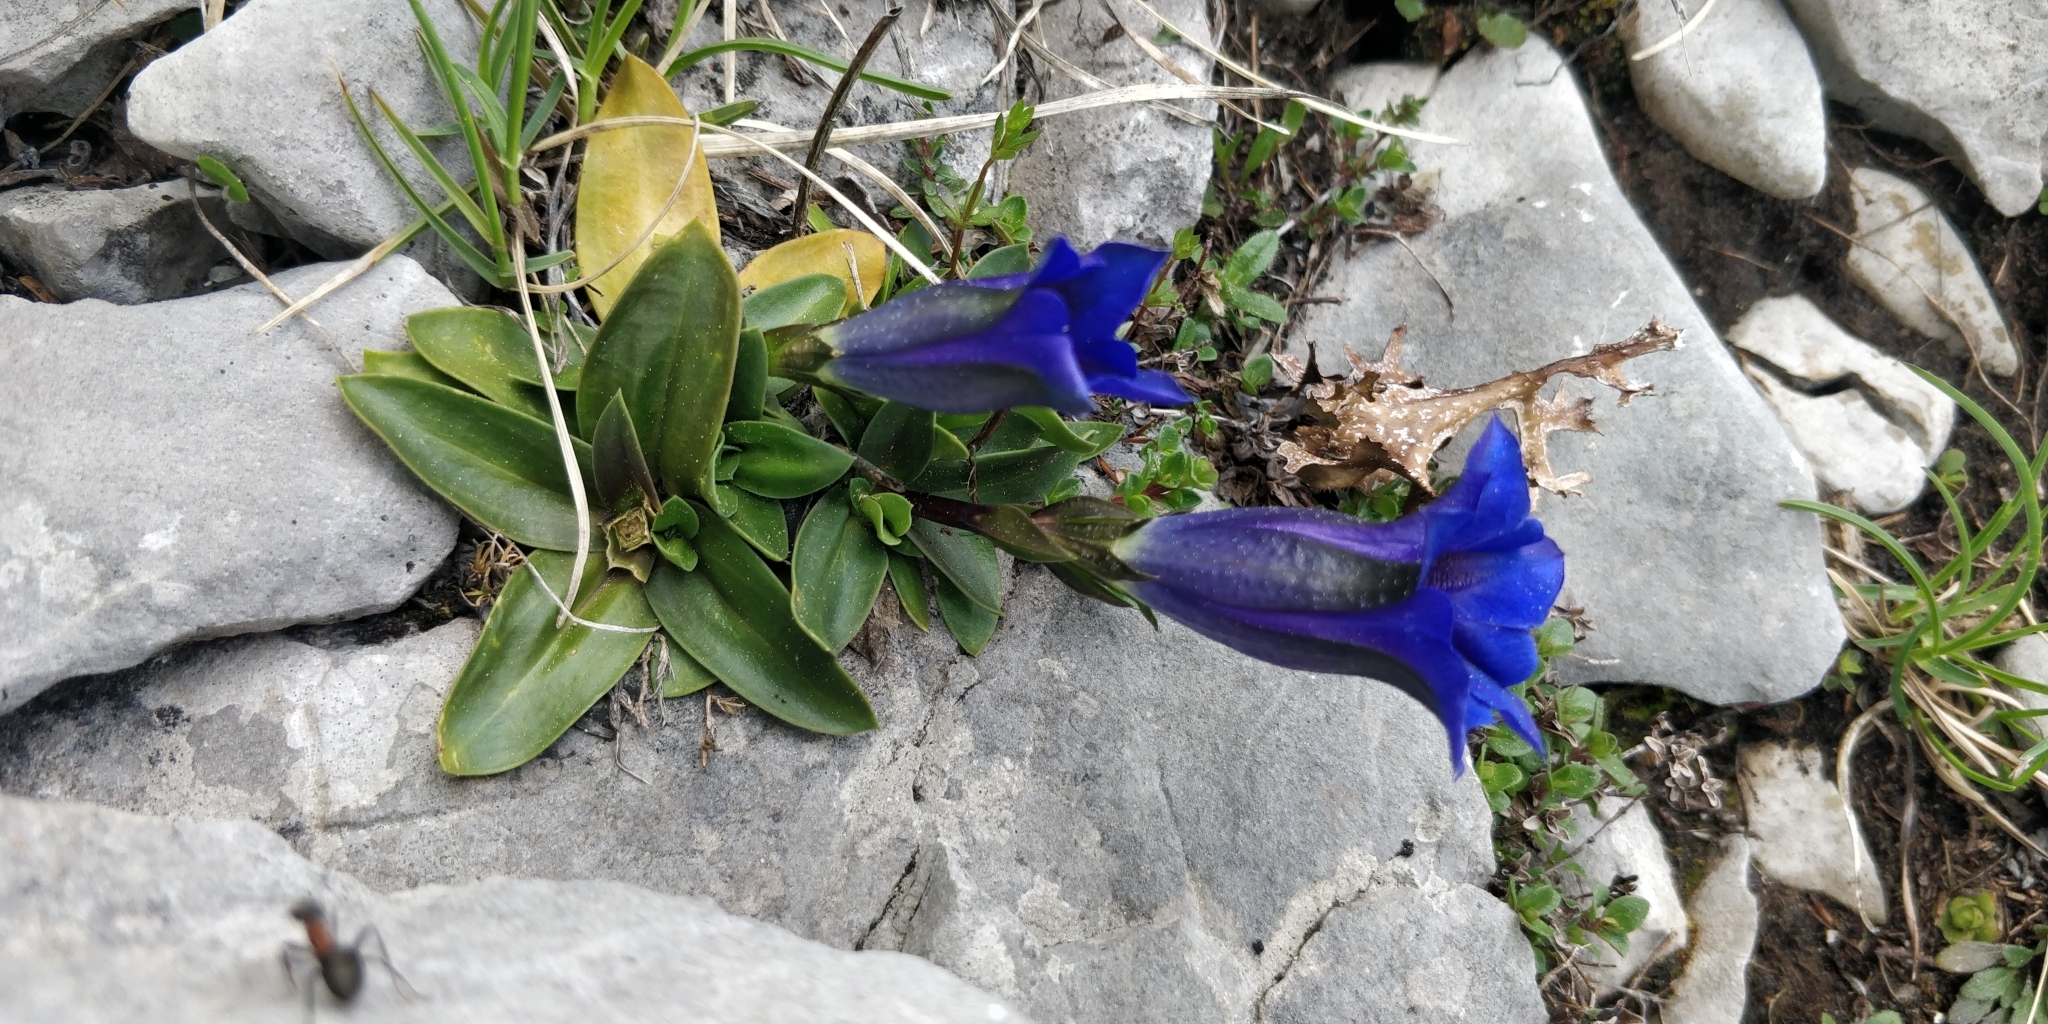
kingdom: Plantae
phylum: Tracheophyta
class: Magnoliopsida
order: Gentianales
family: Gentianaceae
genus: Gentiana
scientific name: Gentiana clusii
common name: Trumpet gentian
